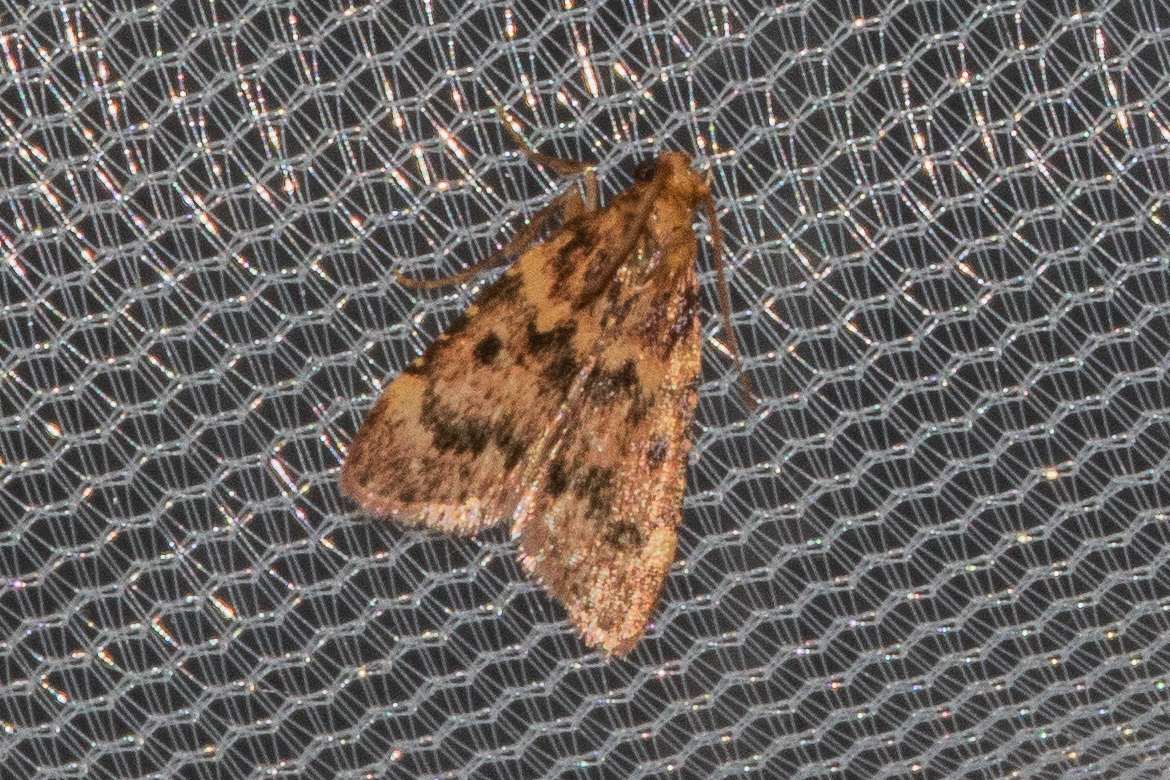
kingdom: Animalia
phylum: Arthropoda
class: Insecta
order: Lepidoptera
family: Pyralidae
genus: Aglossa
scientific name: Aglossa disciferalis
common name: Pink-masked pyralid moth
